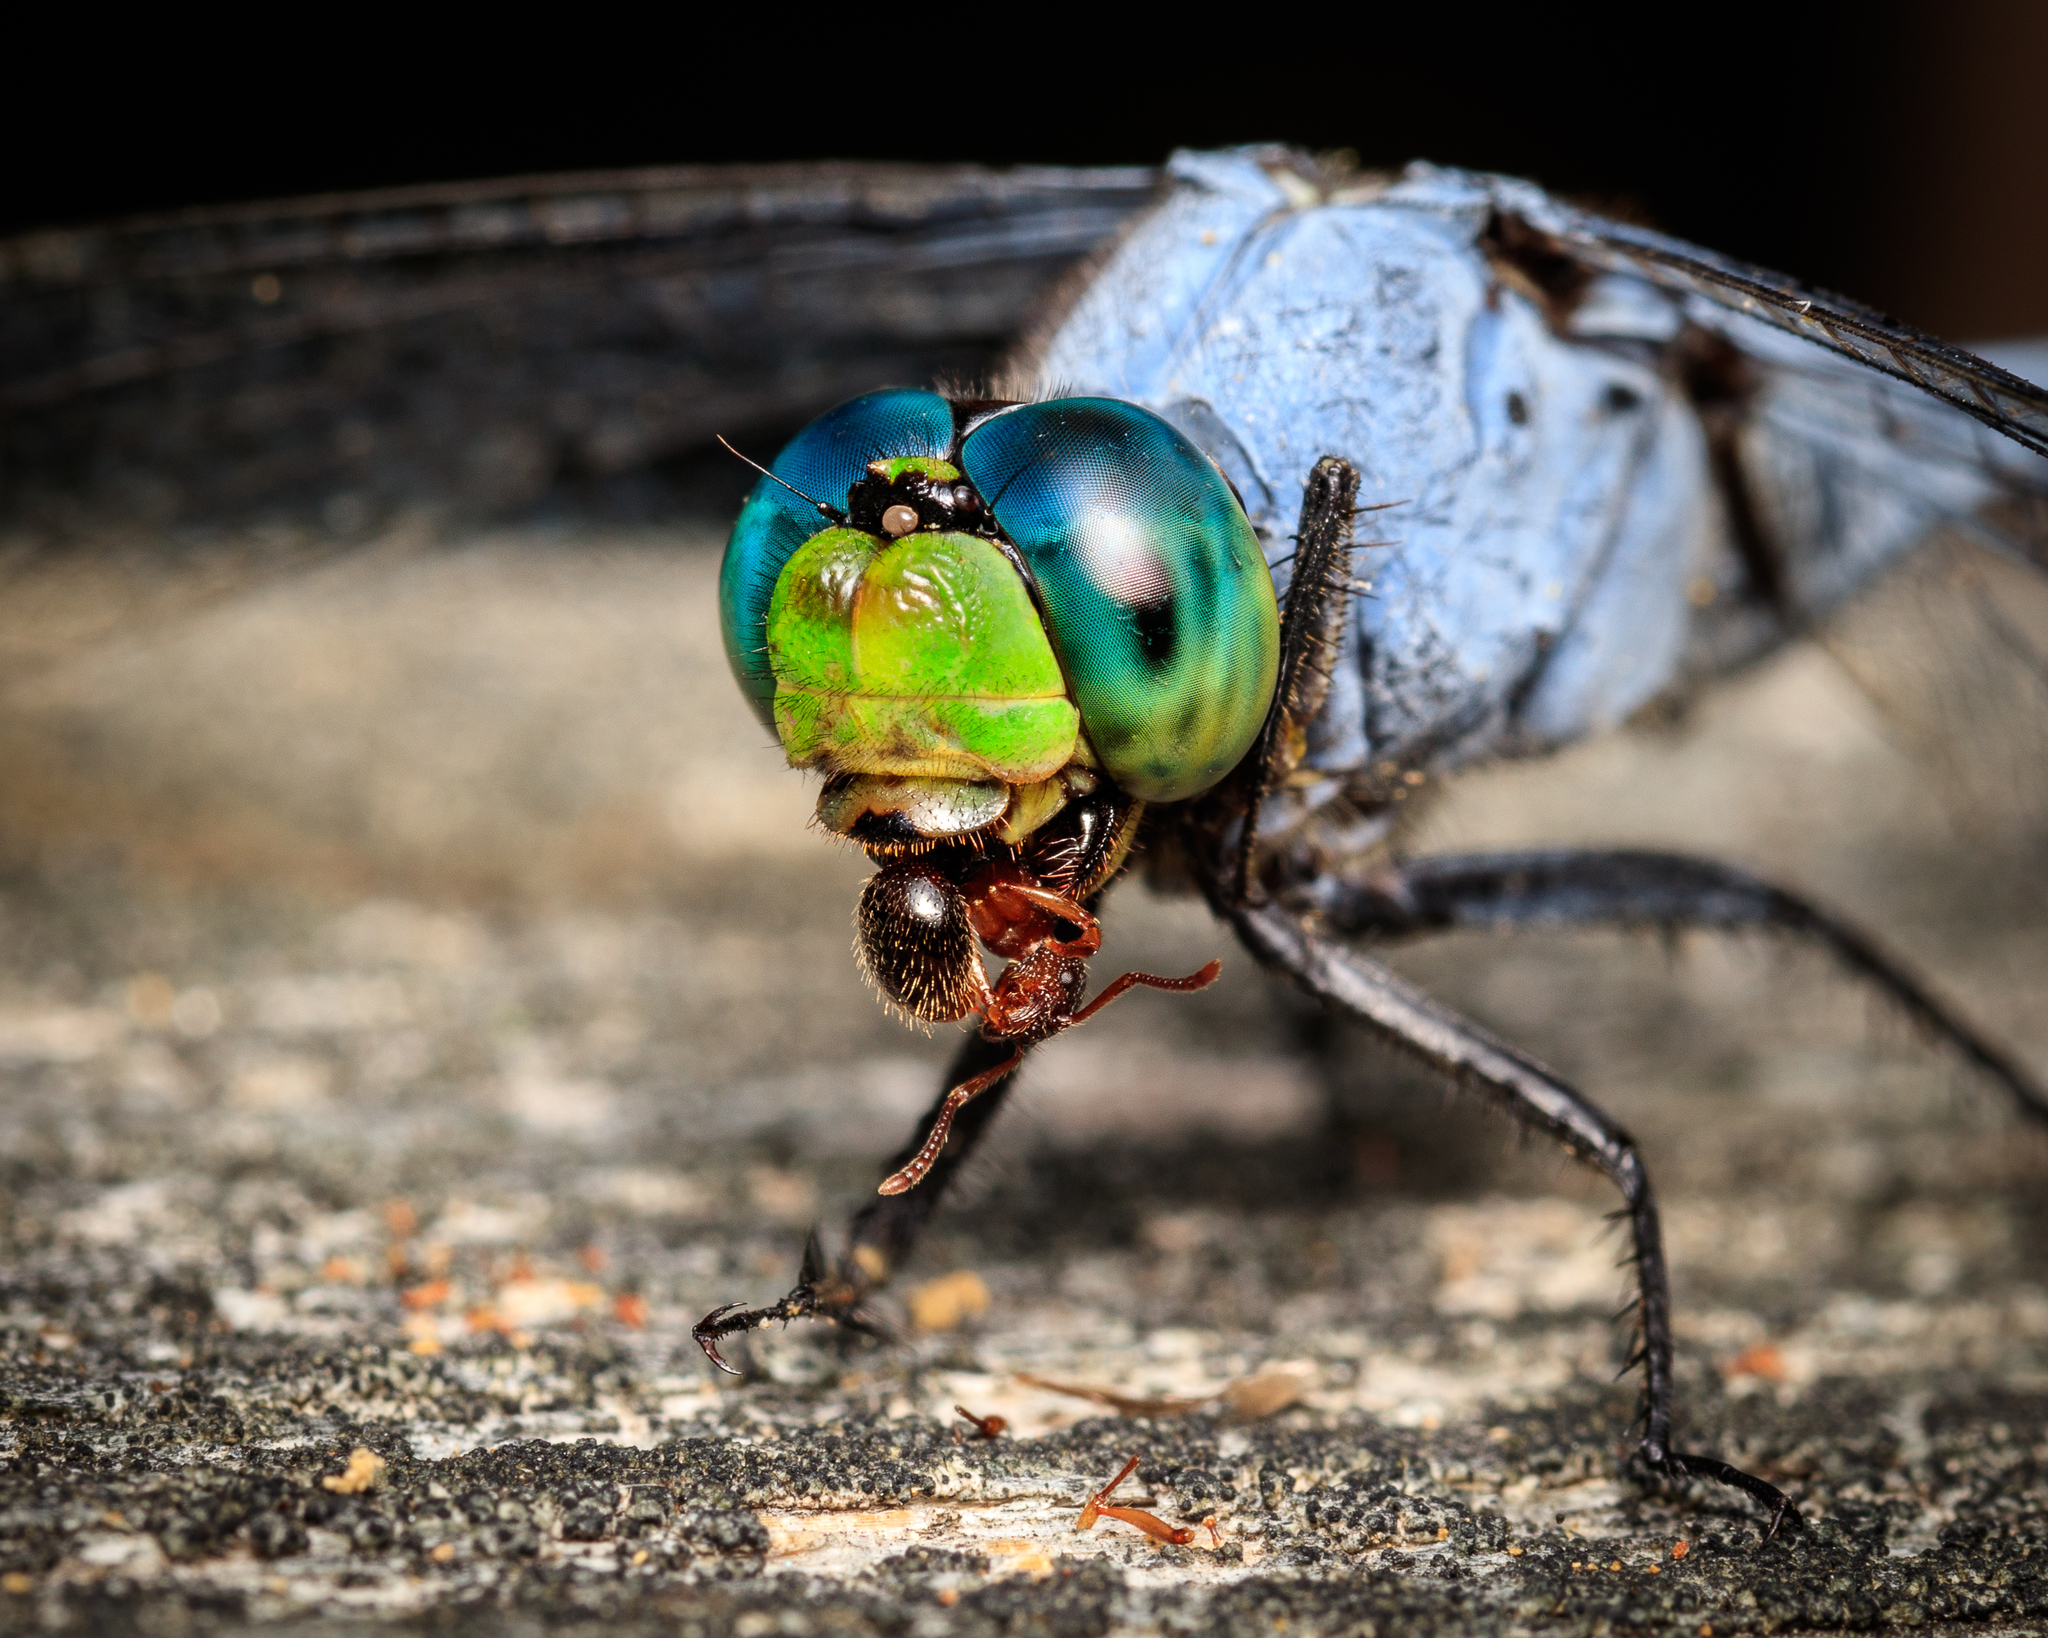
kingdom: Animalia
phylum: Arthropoda
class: Insecta
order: Odonata
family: Libellulidae
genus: Erythemis
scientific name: Erythemis simplicicollis
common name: Eastern pondhawk
